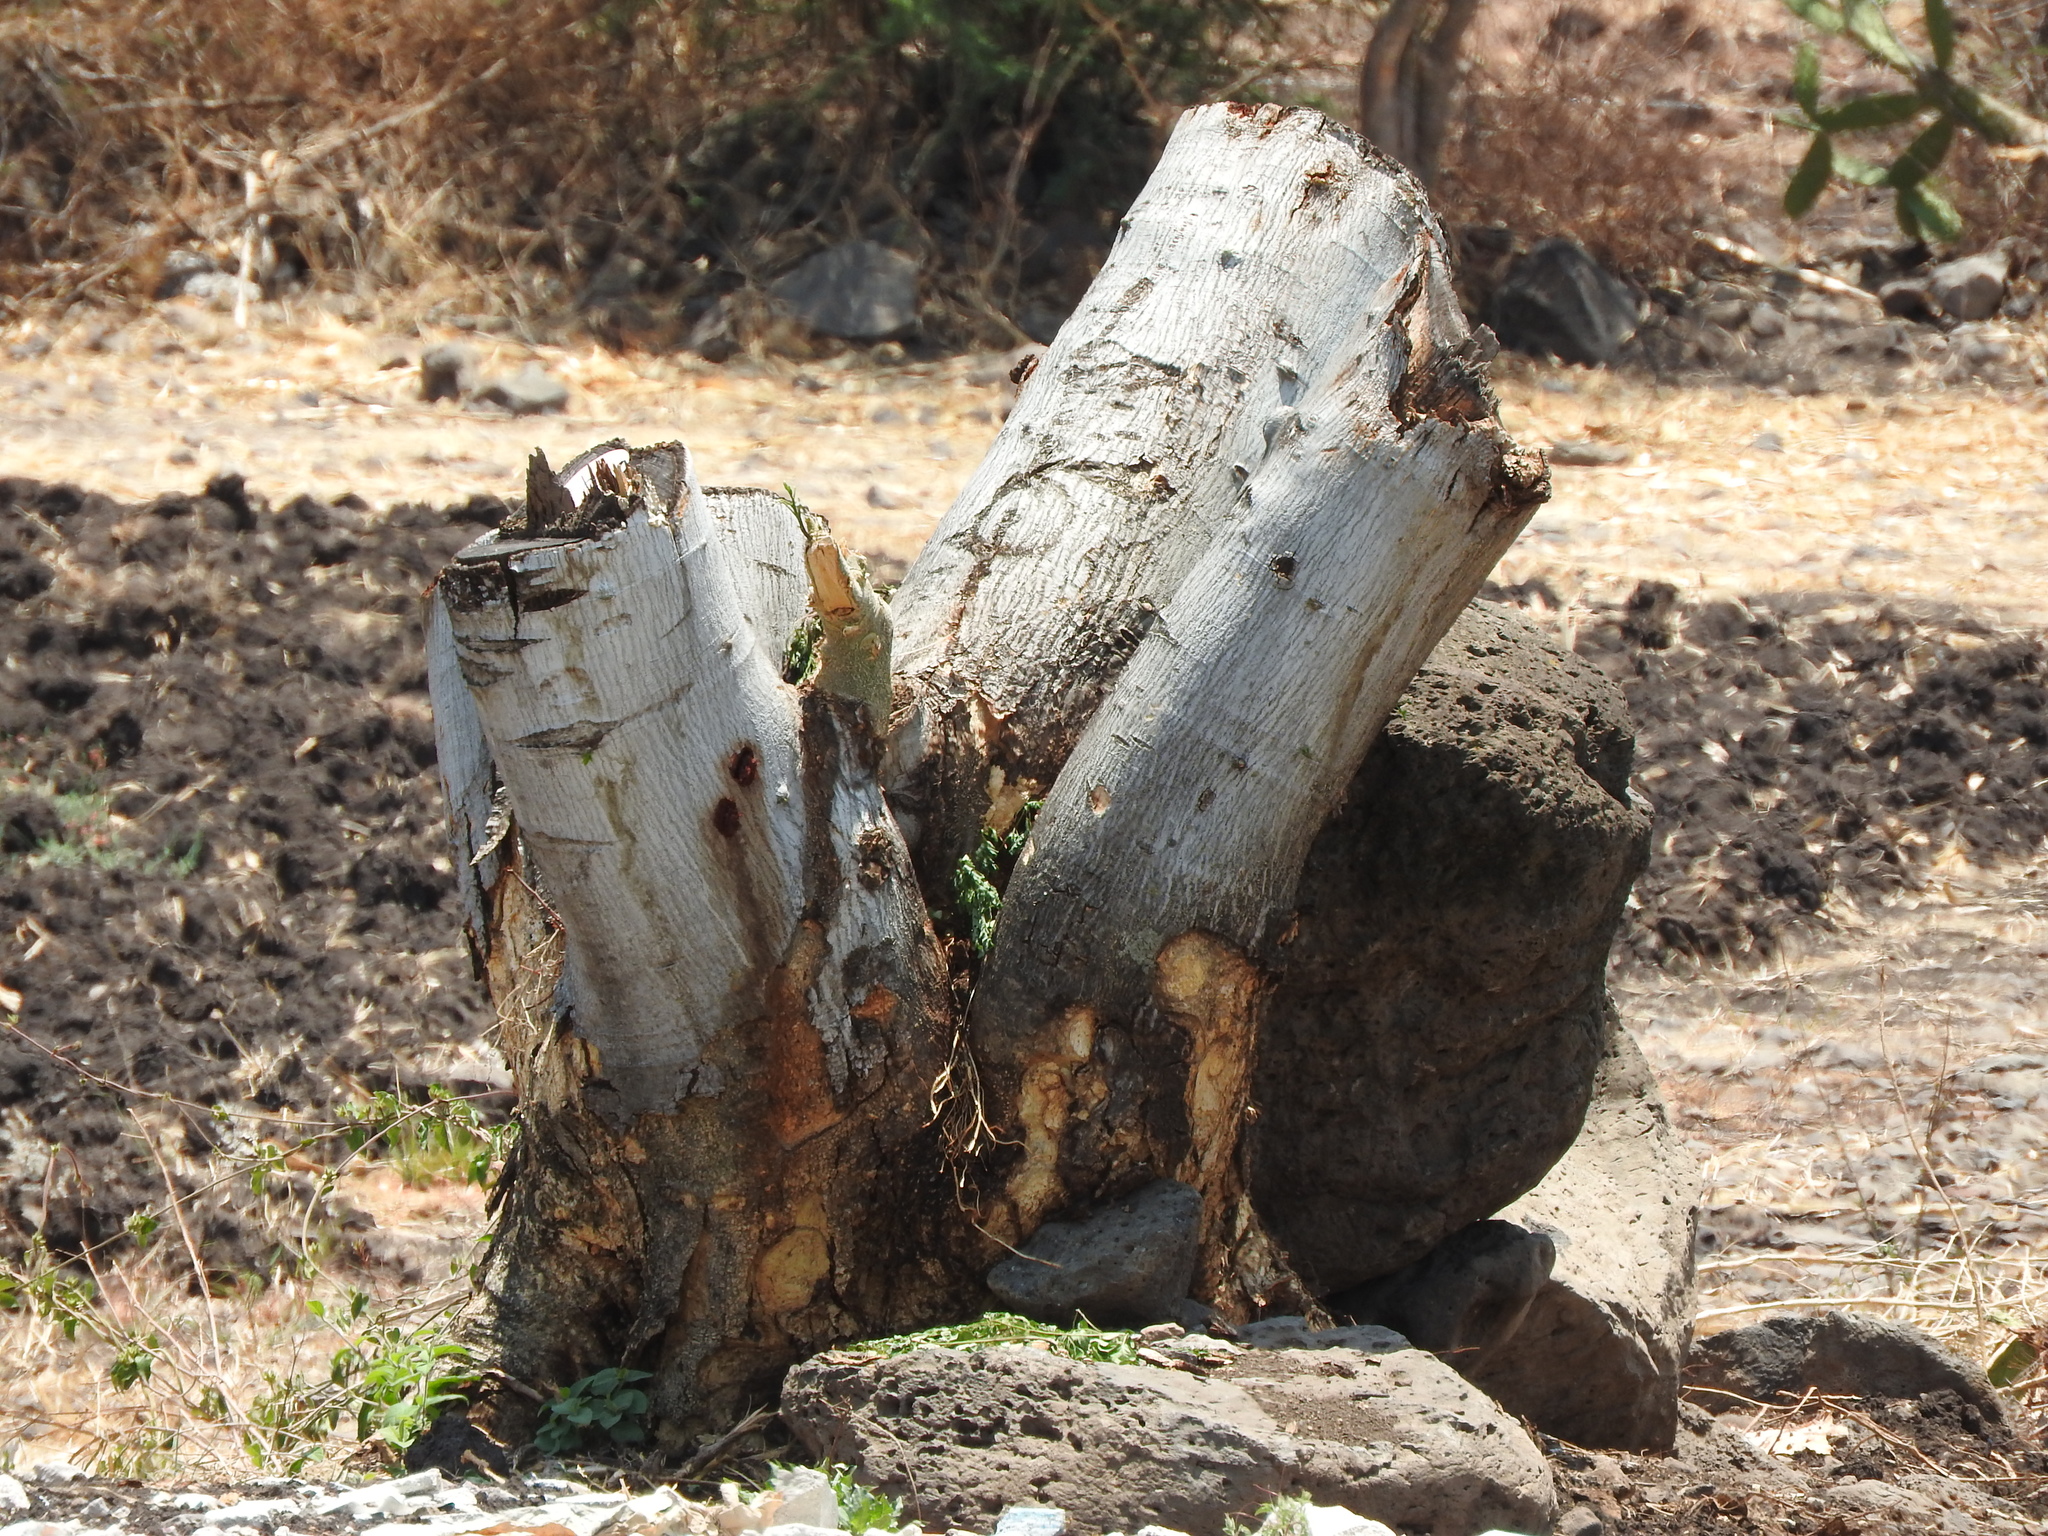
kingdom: Plantae
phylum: Tracheophyta
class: Magnoliopsida
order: Fabales
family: Fabaceae
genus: Albizia
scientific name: Albizia occidentalis
